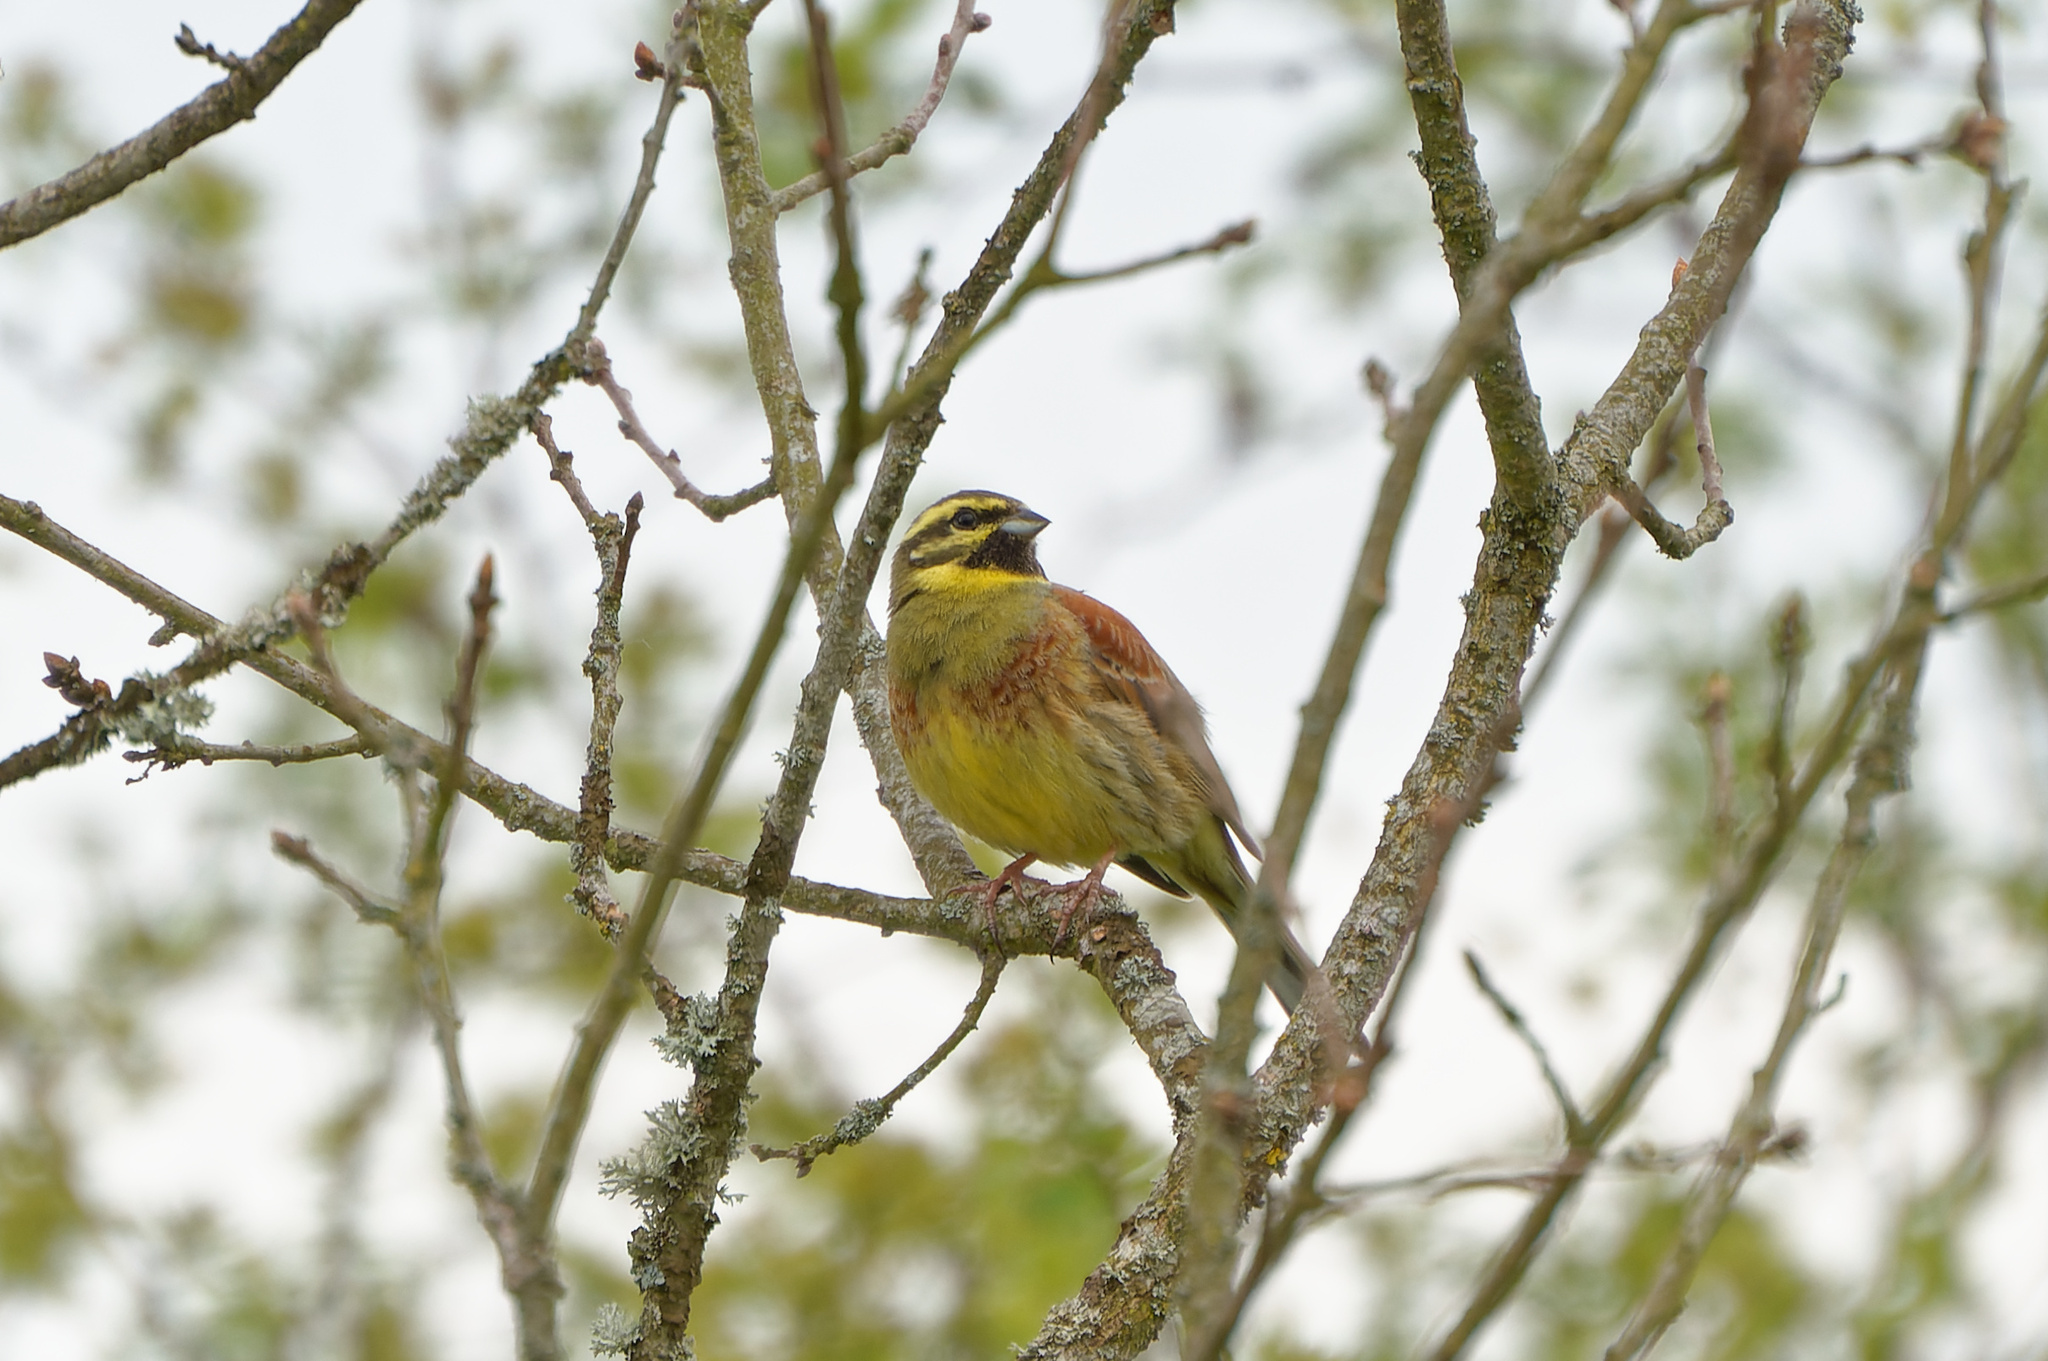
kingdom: Animalia
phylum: Chordata
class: Aves
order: Passeriformes
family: Emberizidae
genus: Emberiza
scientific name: Emberiza cirlus
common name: Cirl bunting
